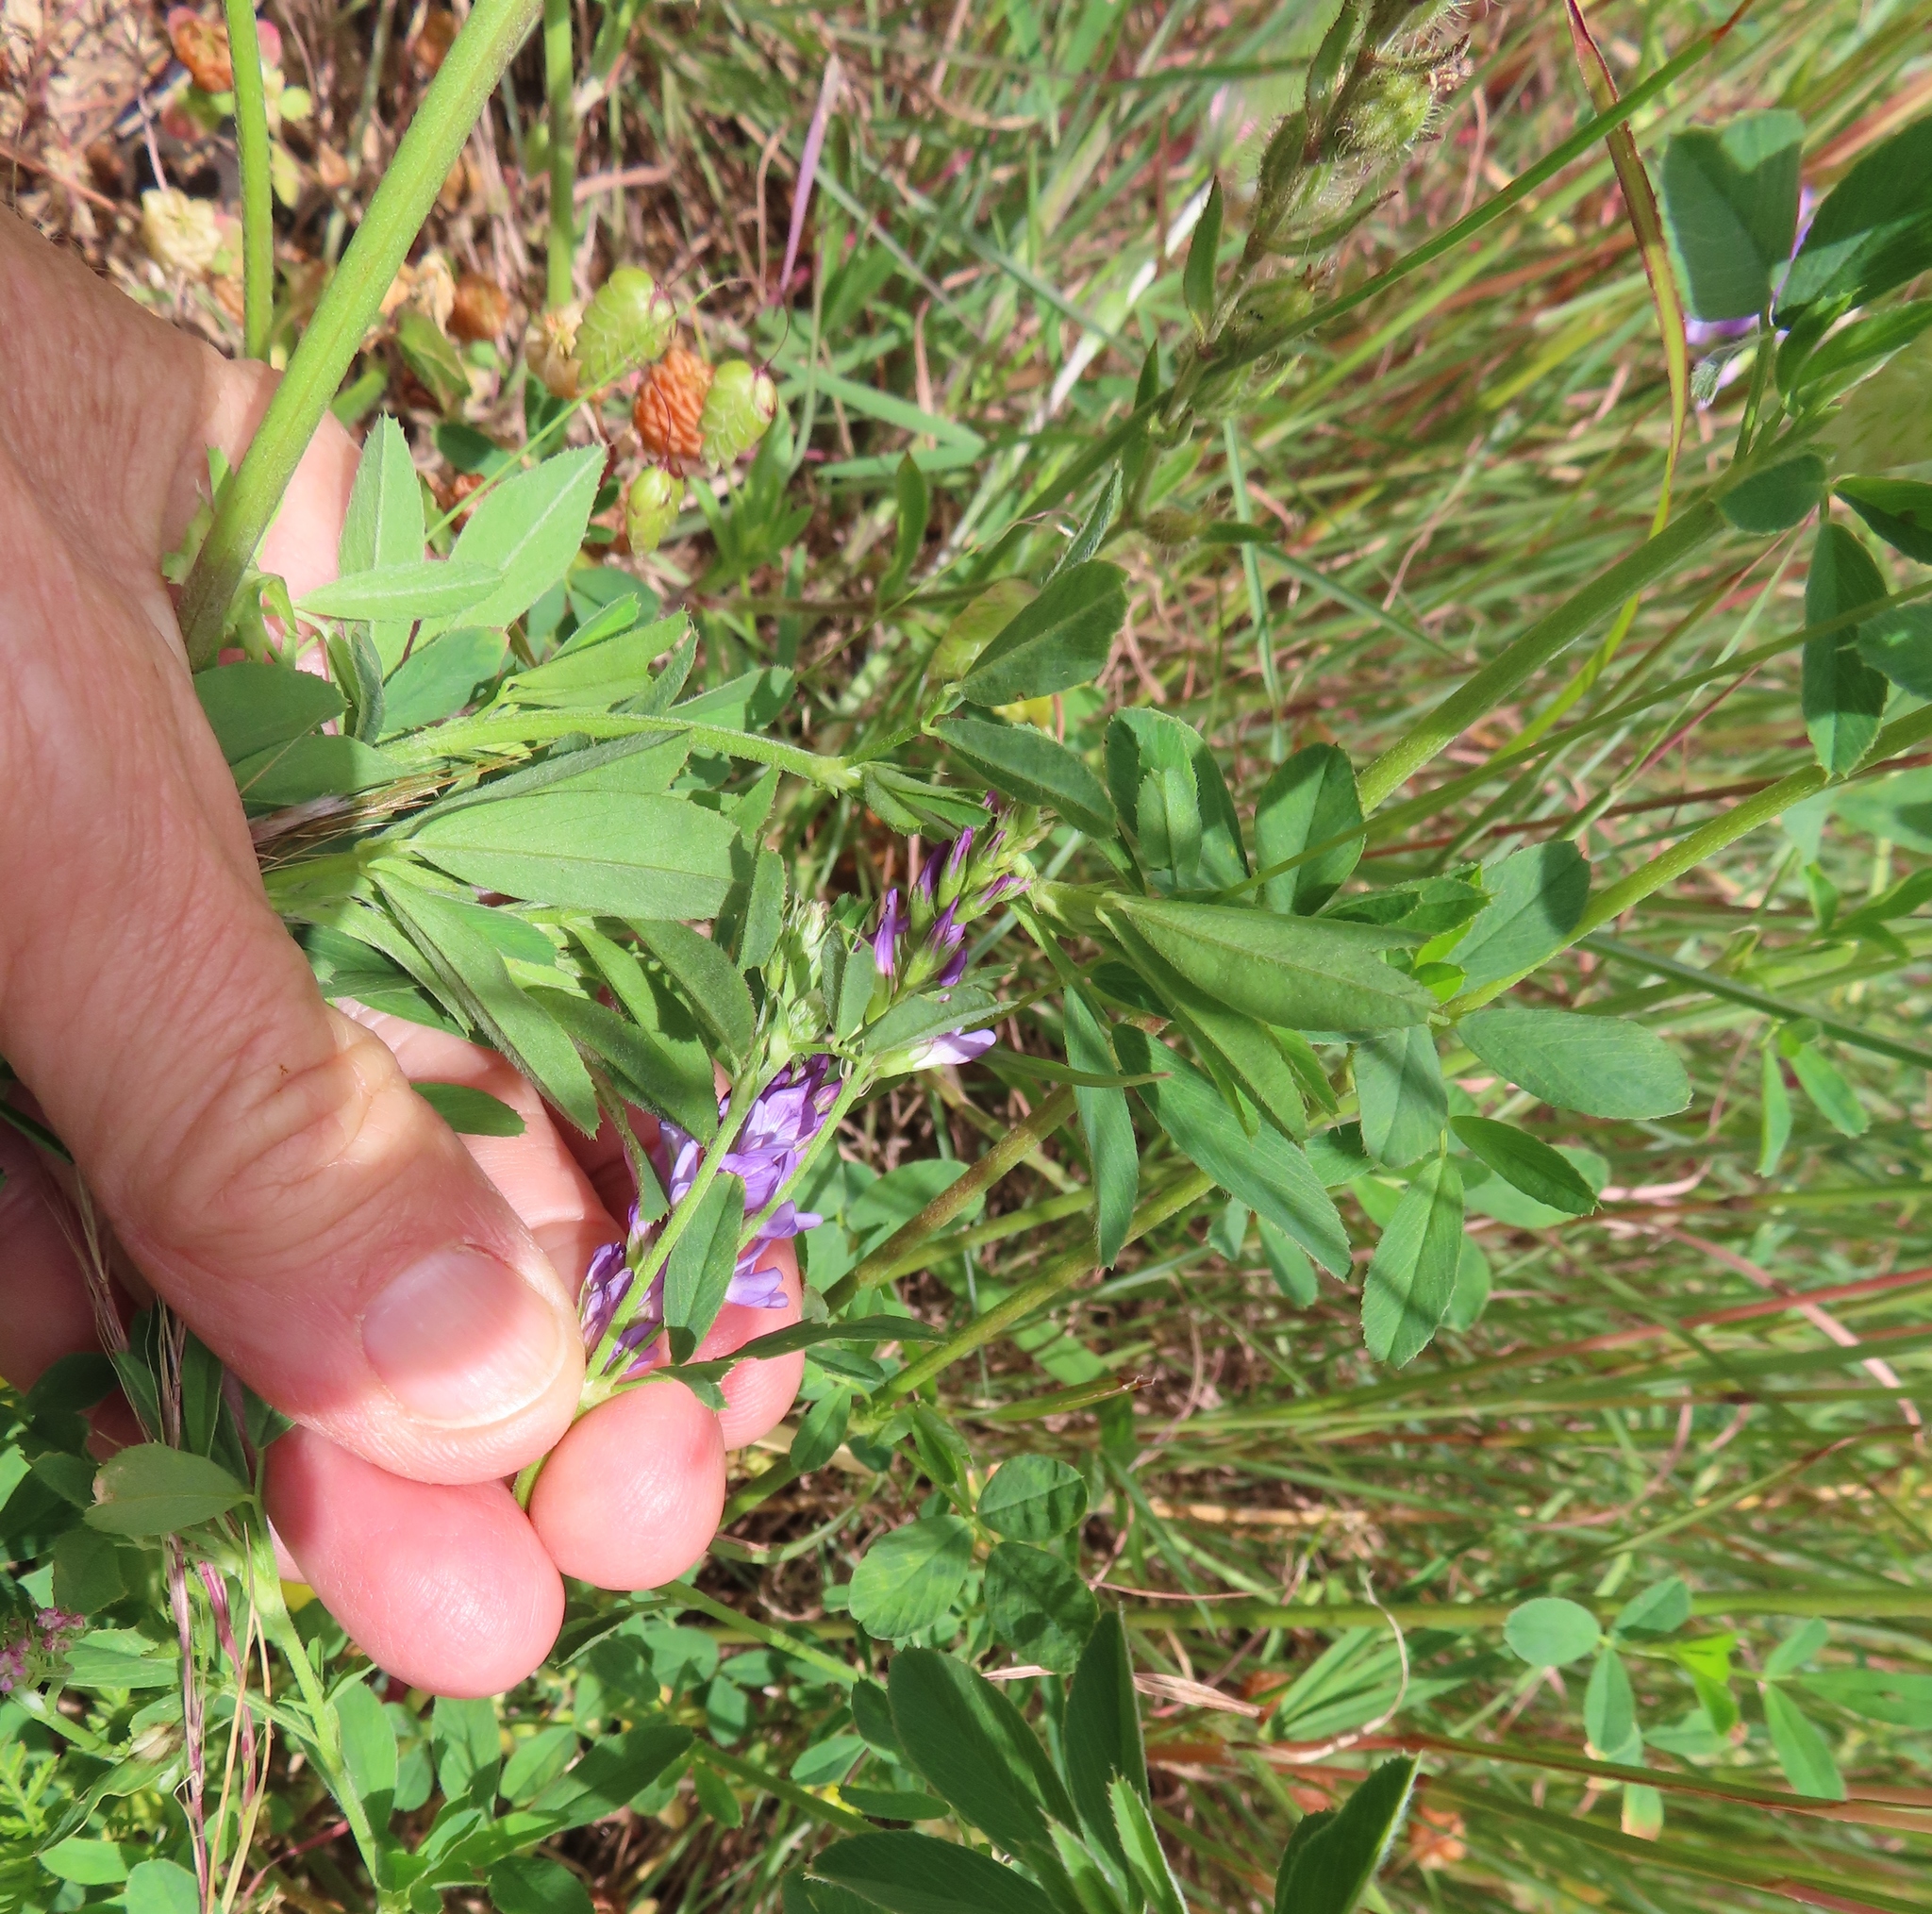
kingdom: Plantae
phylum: Tracheophyta
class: Magnoliopsida
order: Fabales
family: Fabaceae
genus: Medicago
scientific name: Medicago sativa
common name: Alfalfa
